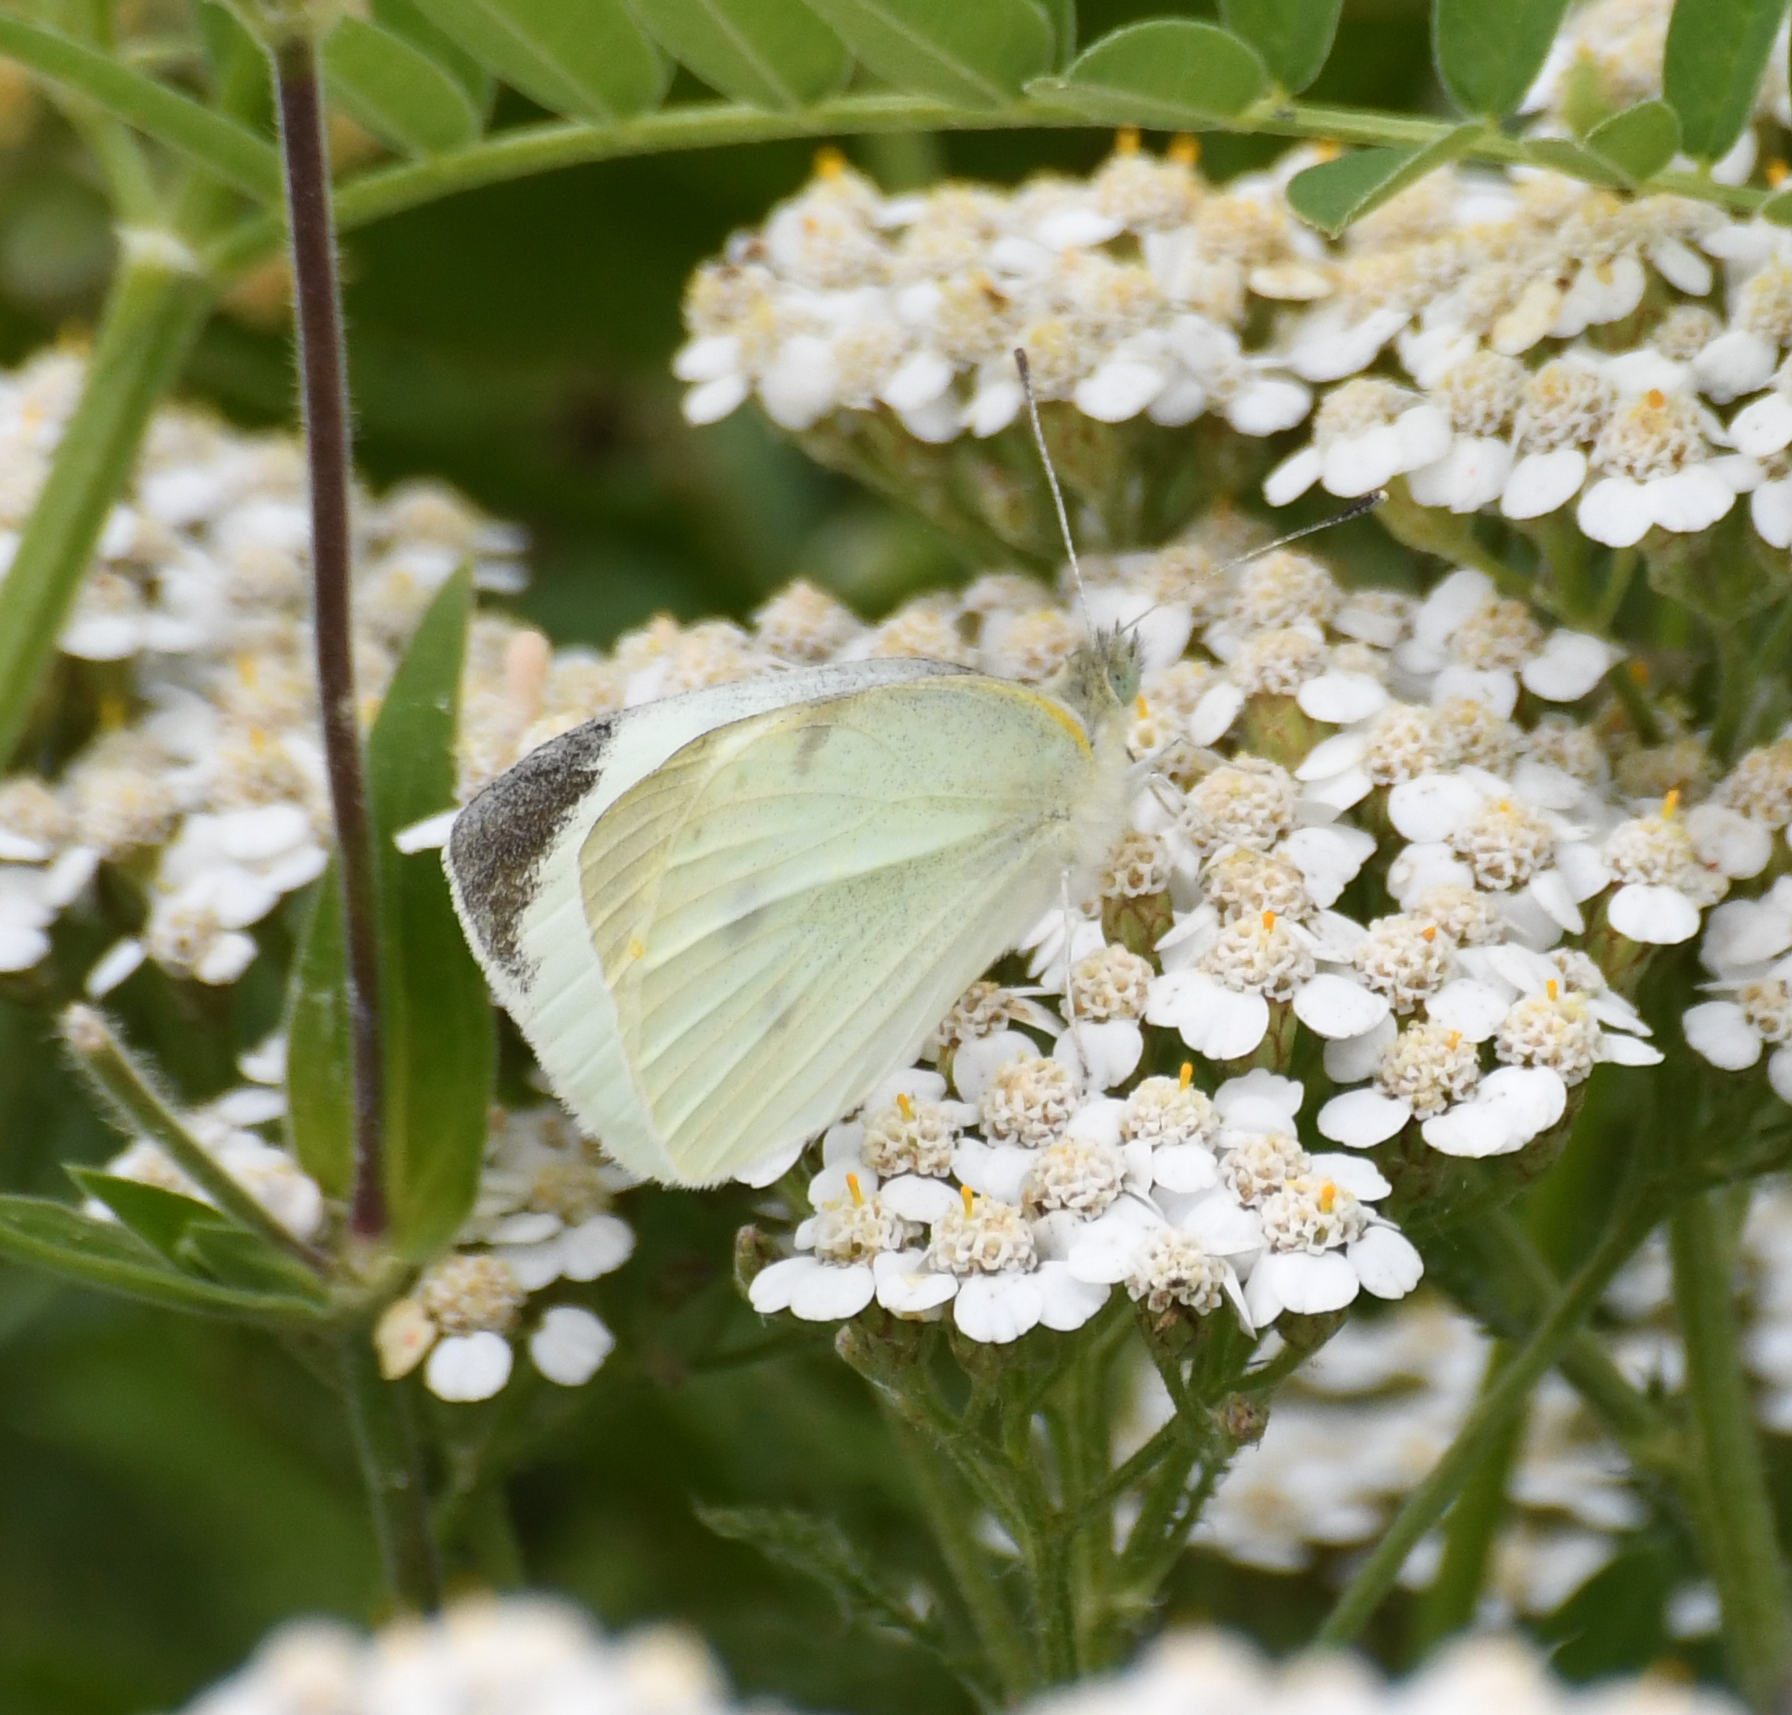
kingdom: Animalia
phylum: Arthropoda
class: Insecta
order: Lepidoptera
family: Pieridae
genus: Pieris
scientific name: Pieris rapae
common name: Small white
